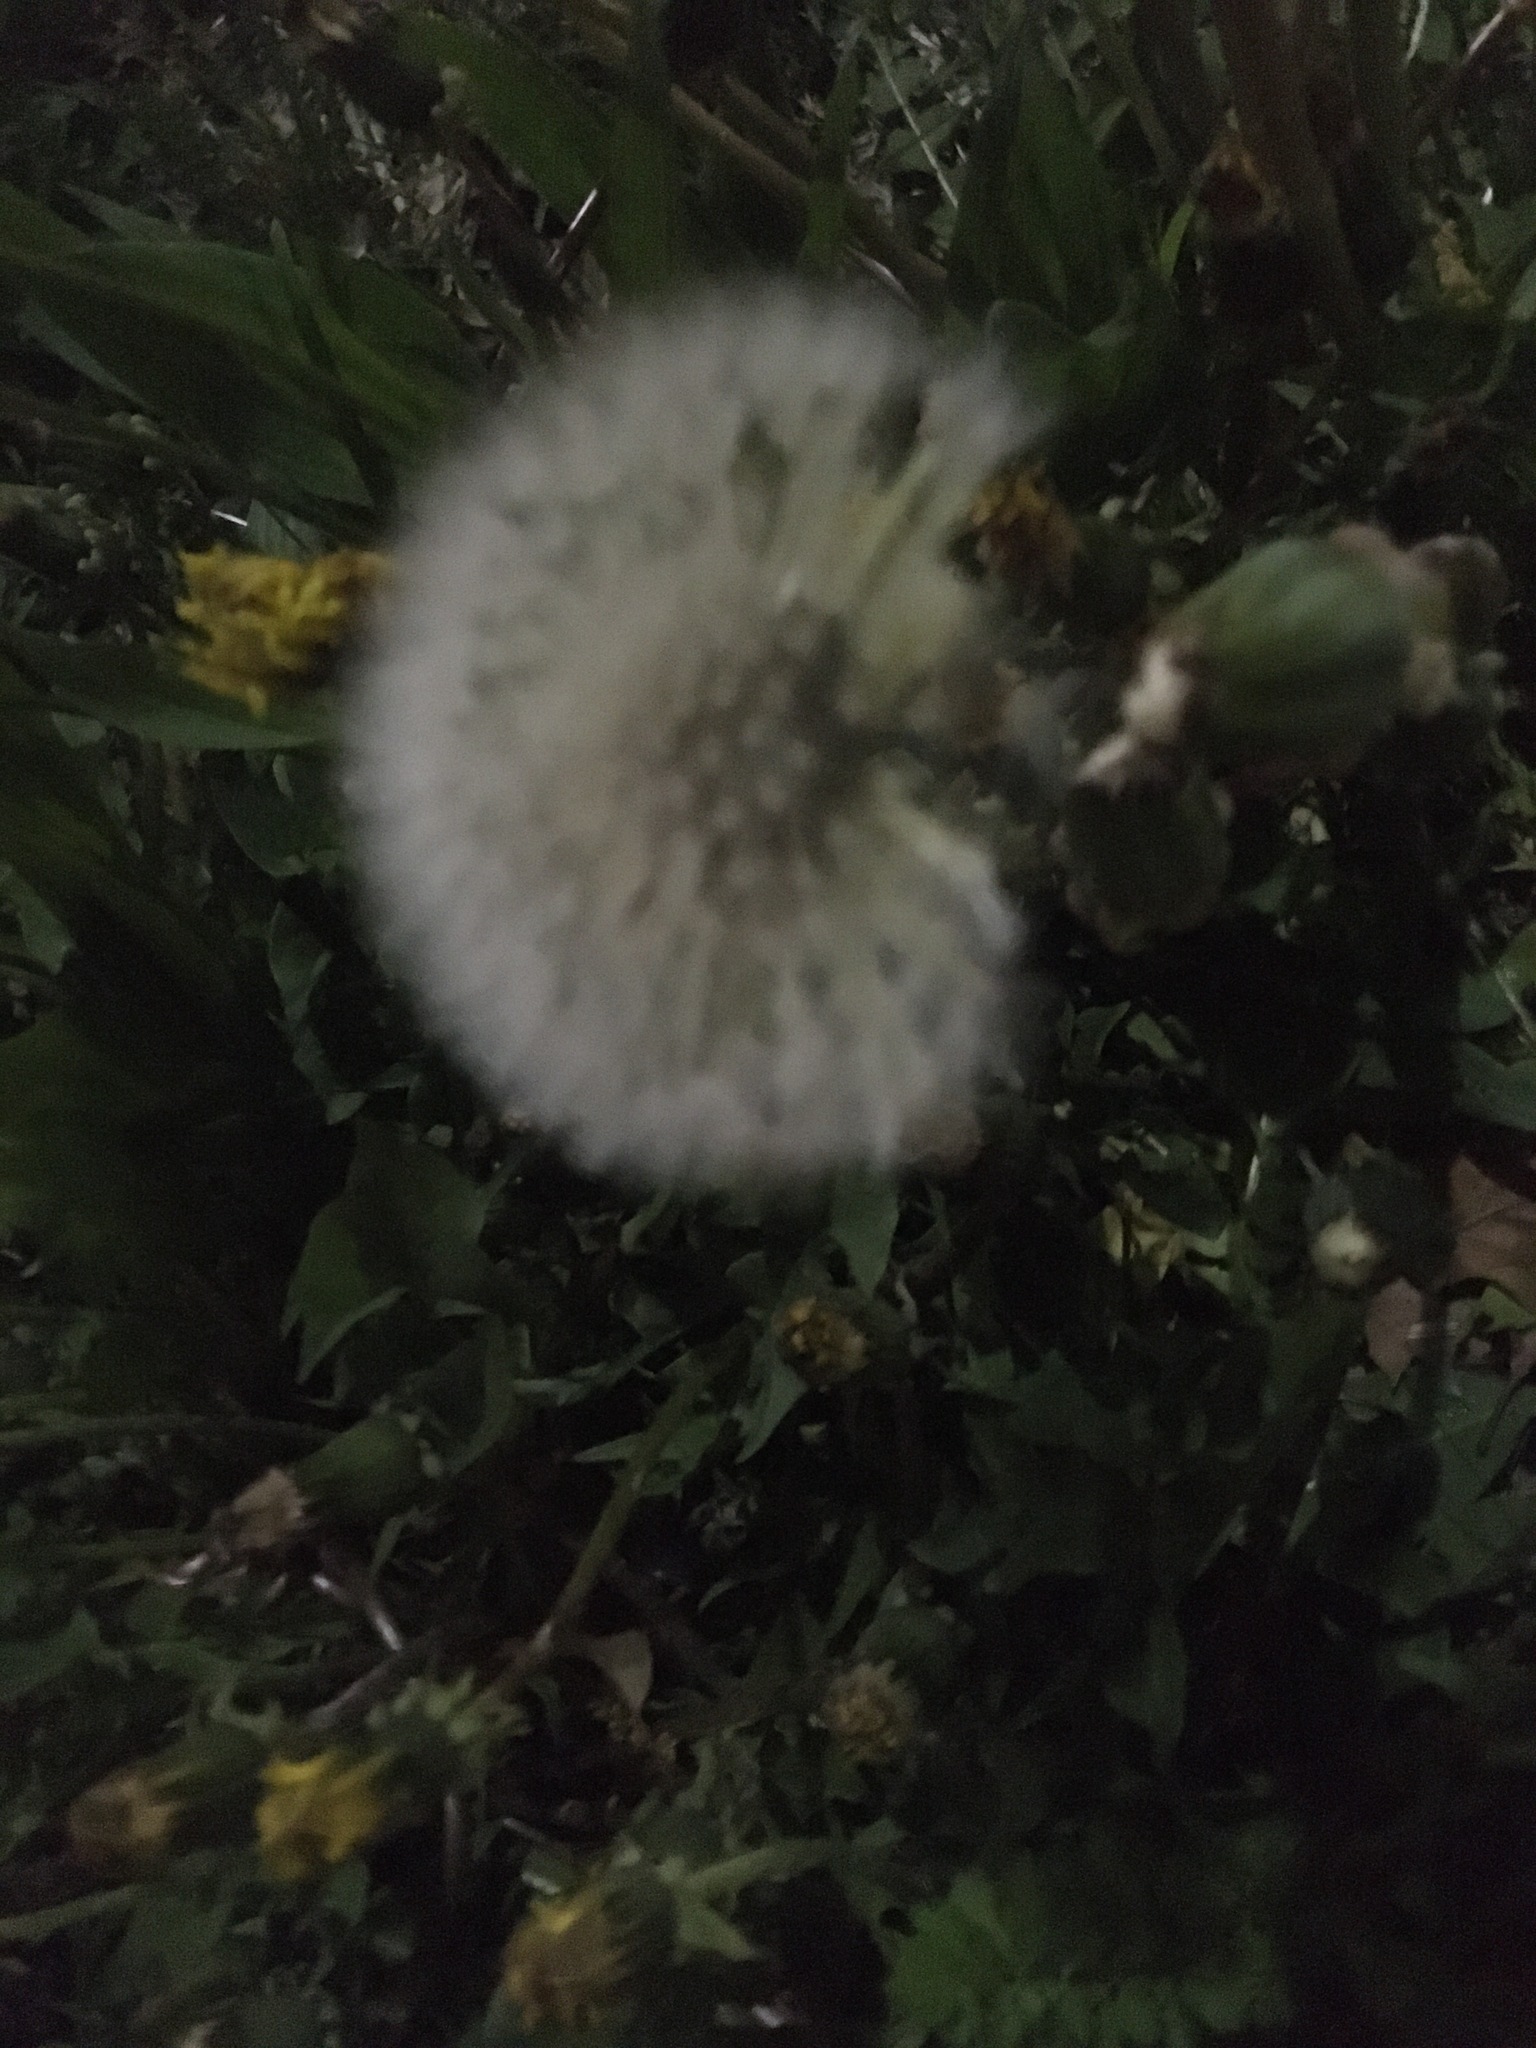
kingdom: Plantae
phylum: Tracheophyta
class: Magnoliopsida
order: Asterales
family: Asteraceae
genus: Taraxacum
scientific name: Taraxacum officinale
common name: Common dandelion
